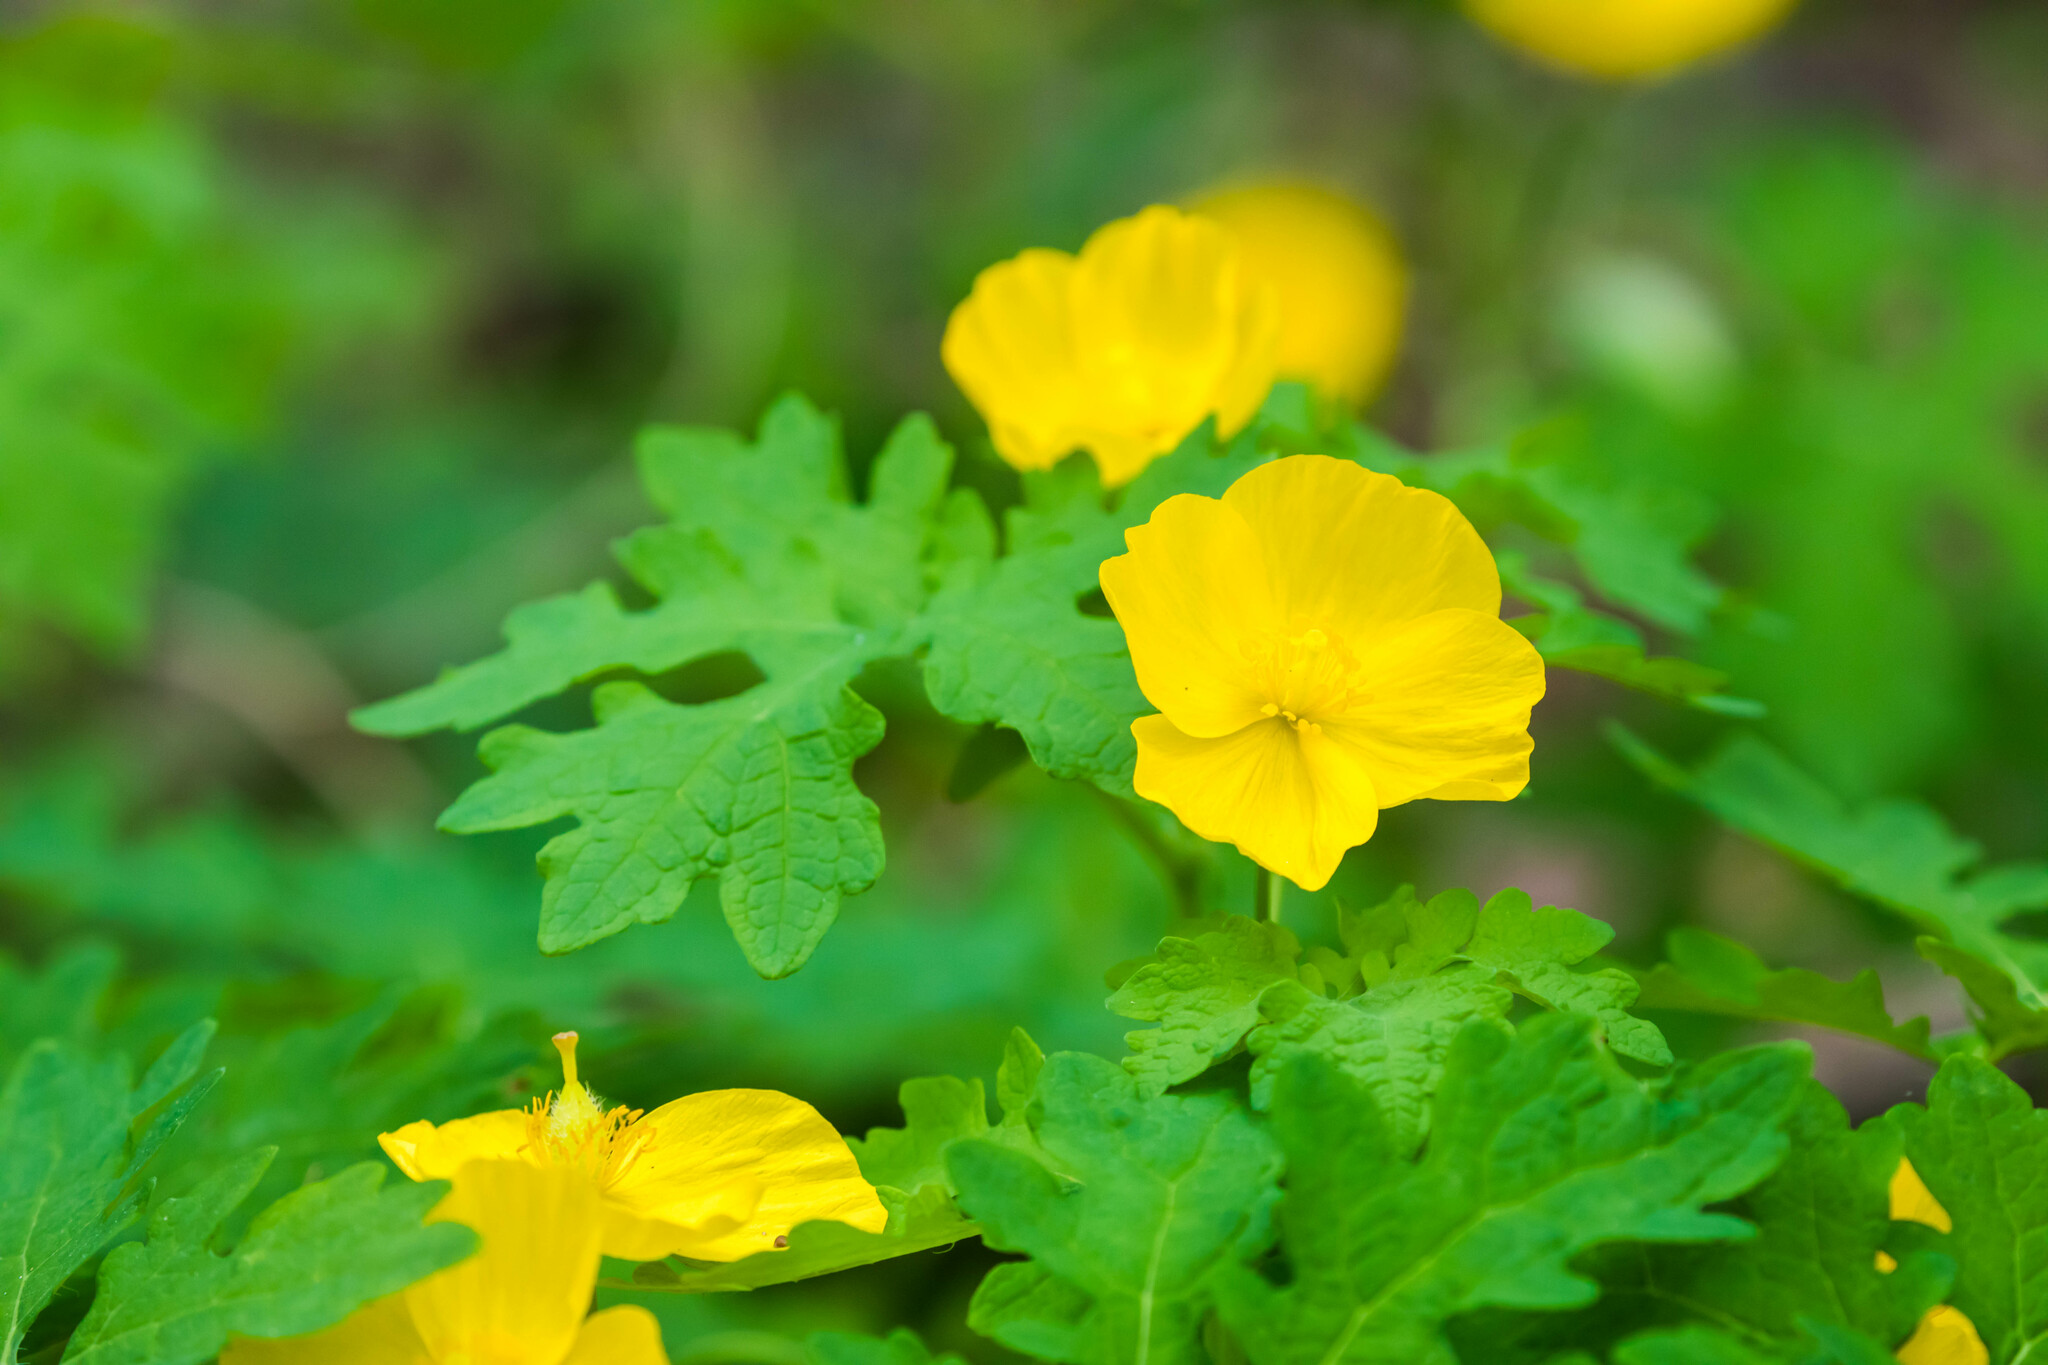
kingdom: Plantae
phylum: Tracheophyta
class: Magnoliopsida
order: Ranunculales
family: Papaveraceae
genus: Stylophorum
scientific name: Stylophorum diphyllum
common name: Celandine poppy
